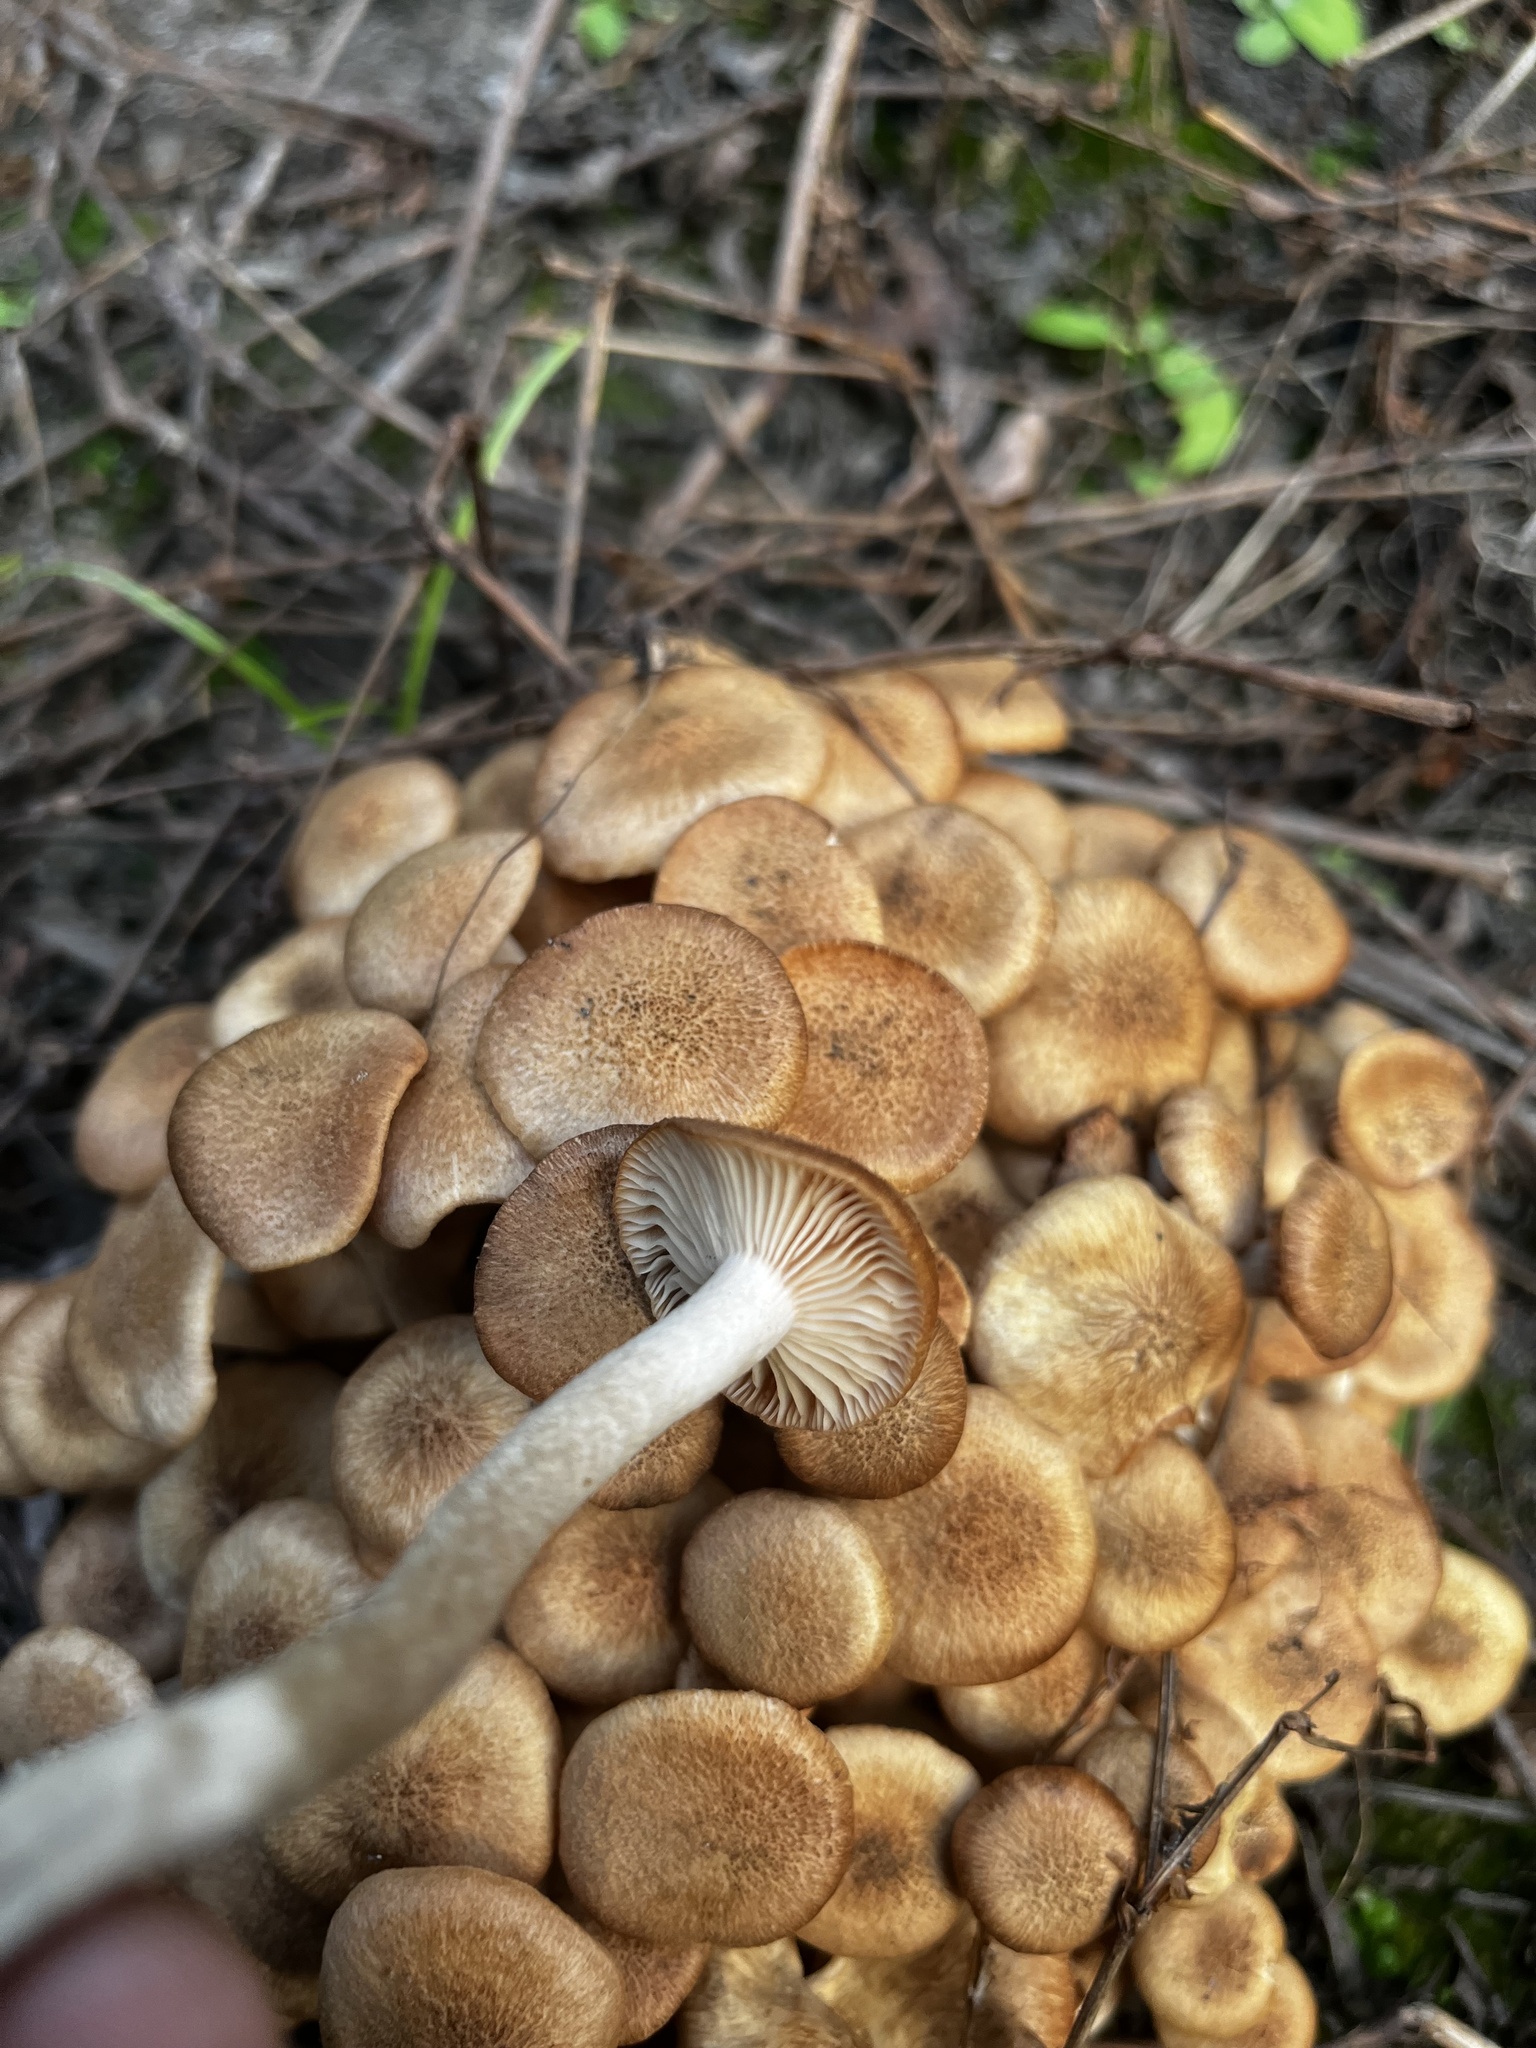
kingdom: Fungi
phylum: Basidiomycota
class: Agaricomycetes
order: Agaricales
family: Physalacriaceae
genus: Desarmillaria
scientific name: Desarmillaria caespitosa
